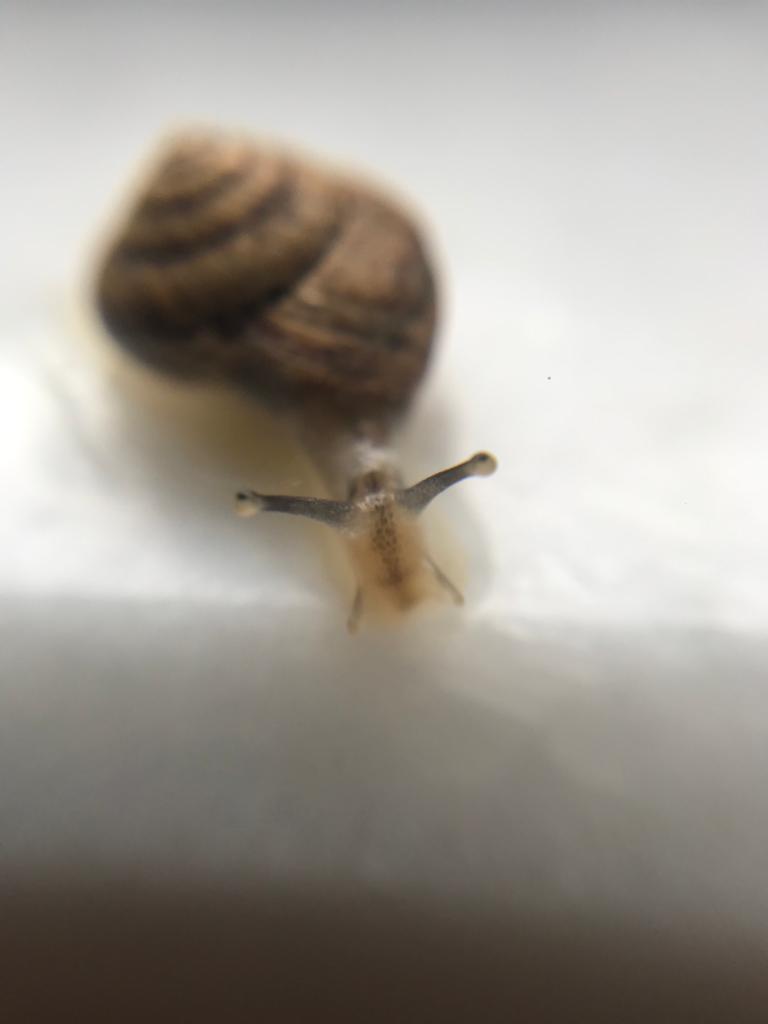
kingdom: Animalia
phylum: Mollusca
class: Gastropoda
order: Stylommatophora
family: Geomitridae
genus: Cernuella
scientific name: Cernuella virgata
